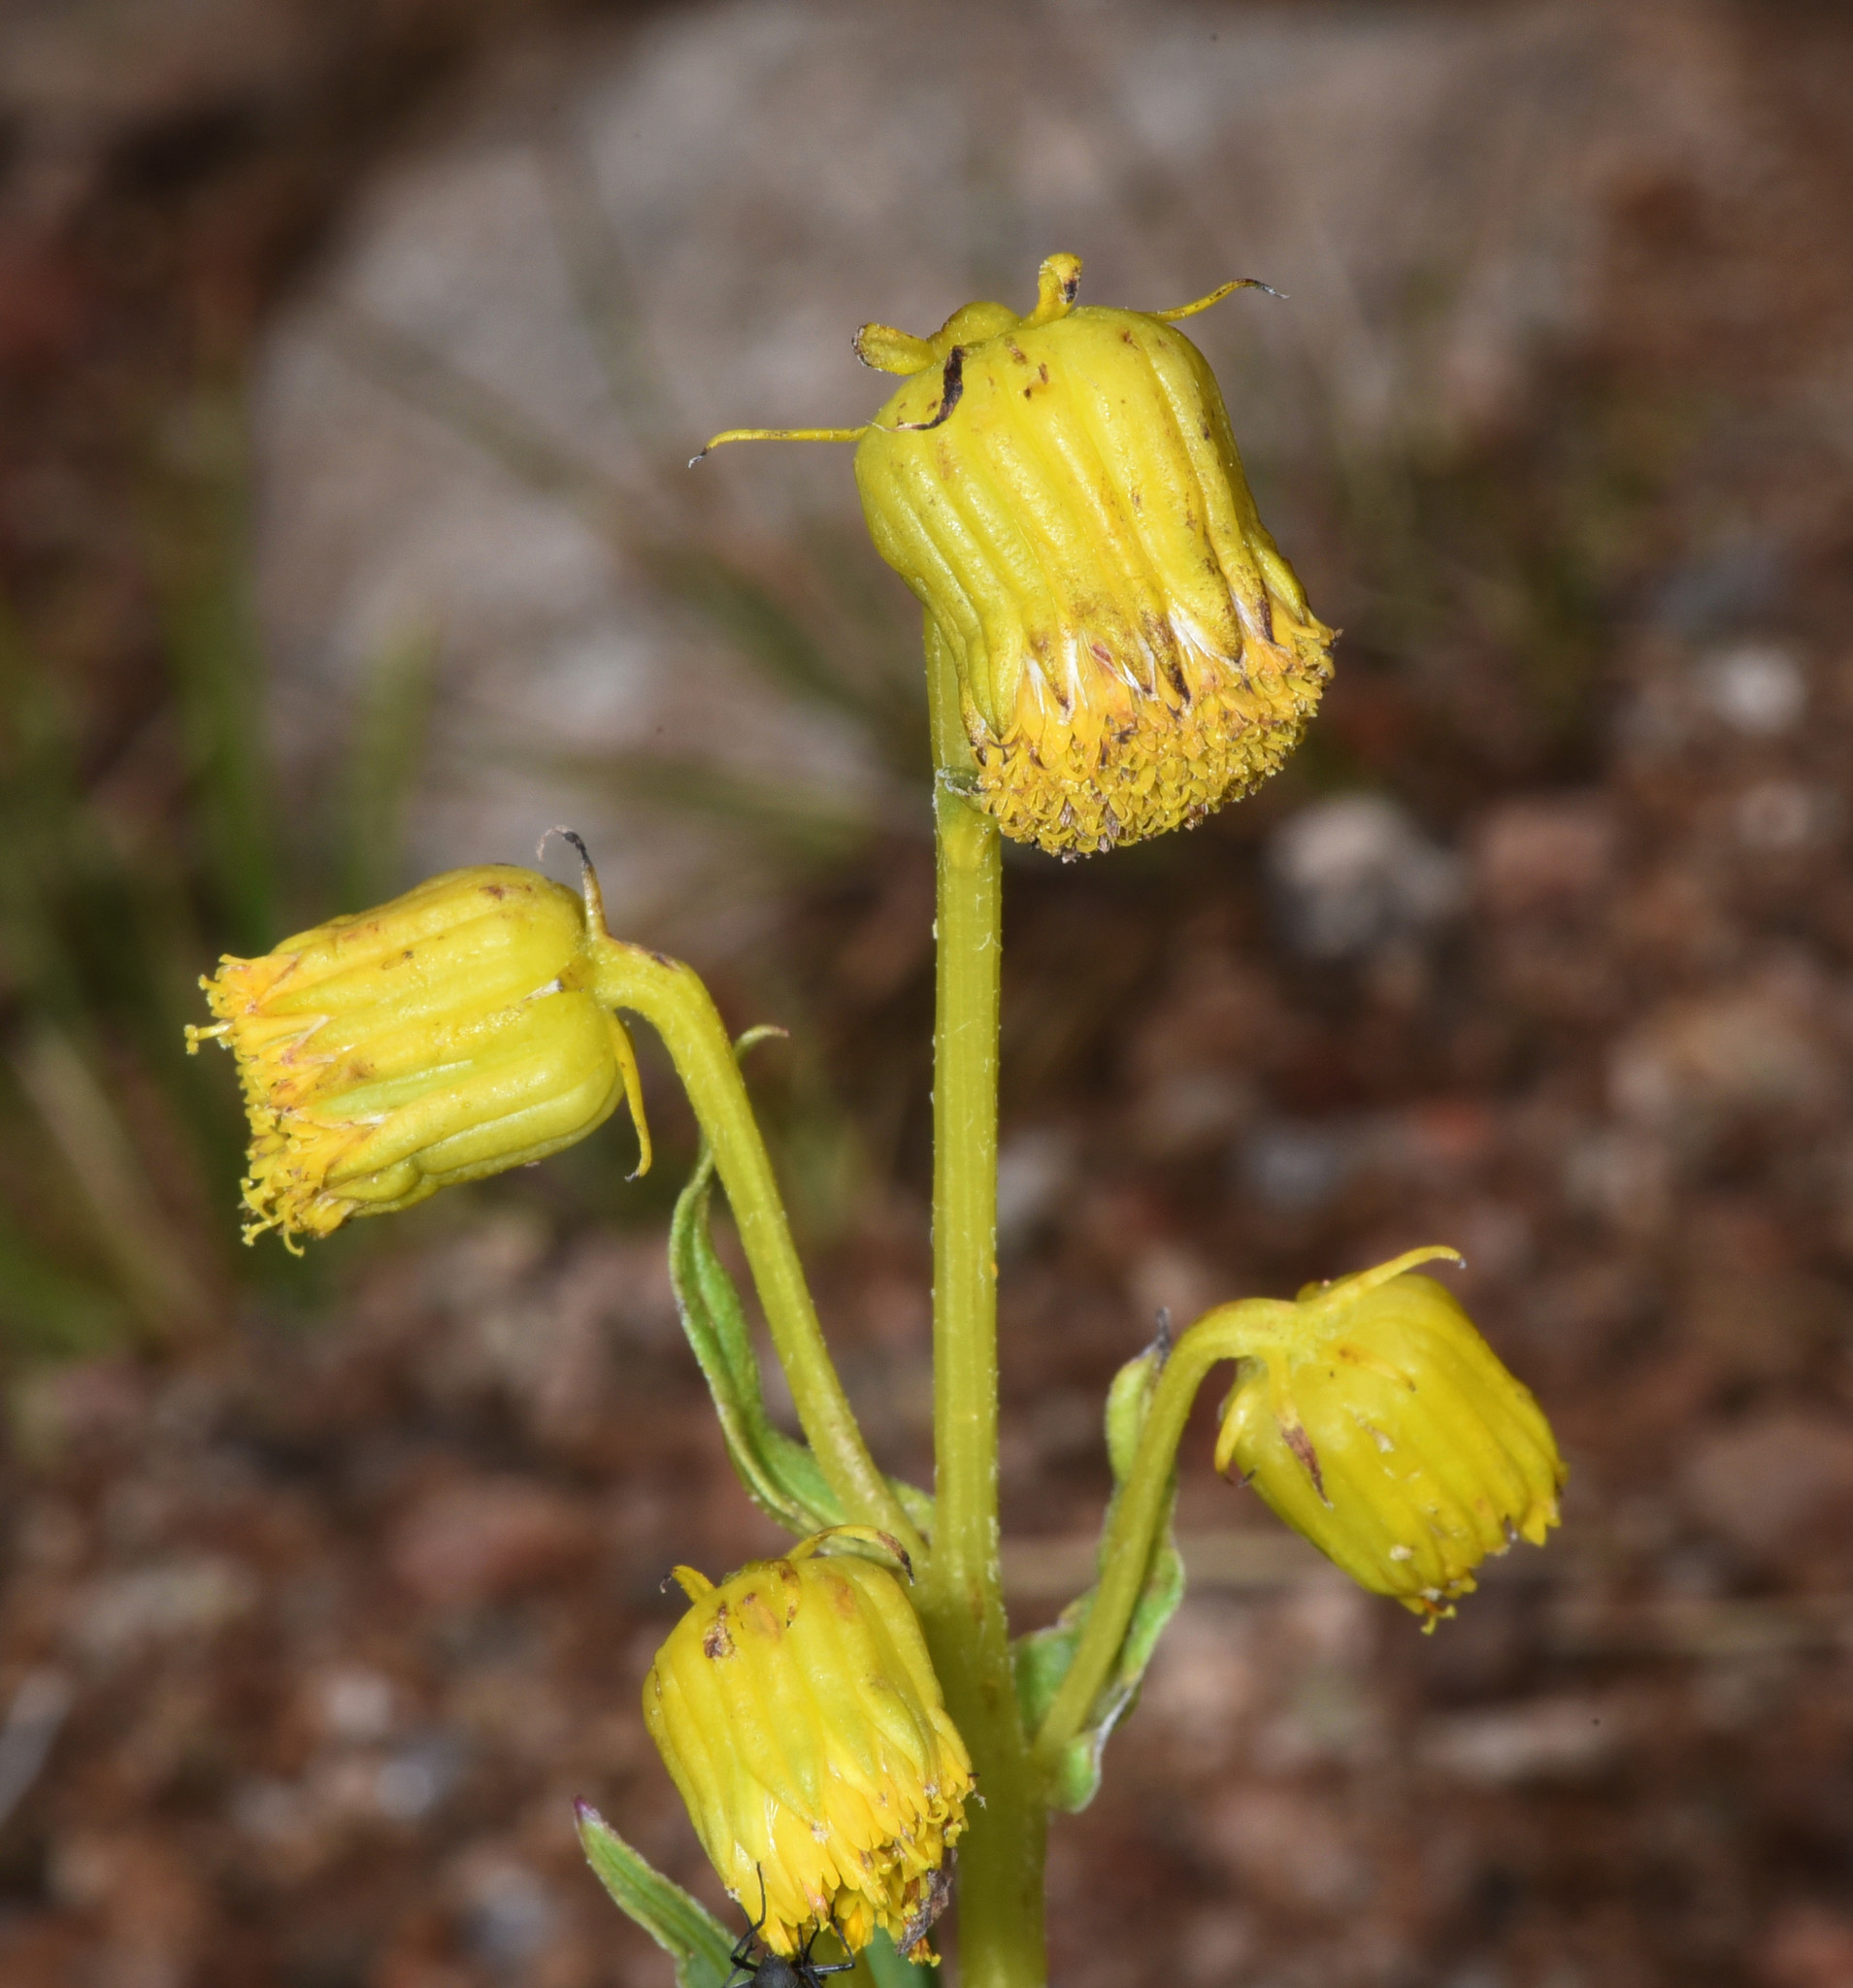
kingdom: Plantae
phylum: Tracheophyta
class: Magnoliopsida
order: Asterales
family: Asteraceae
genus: Senecio
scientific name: Senecio bigelovii
